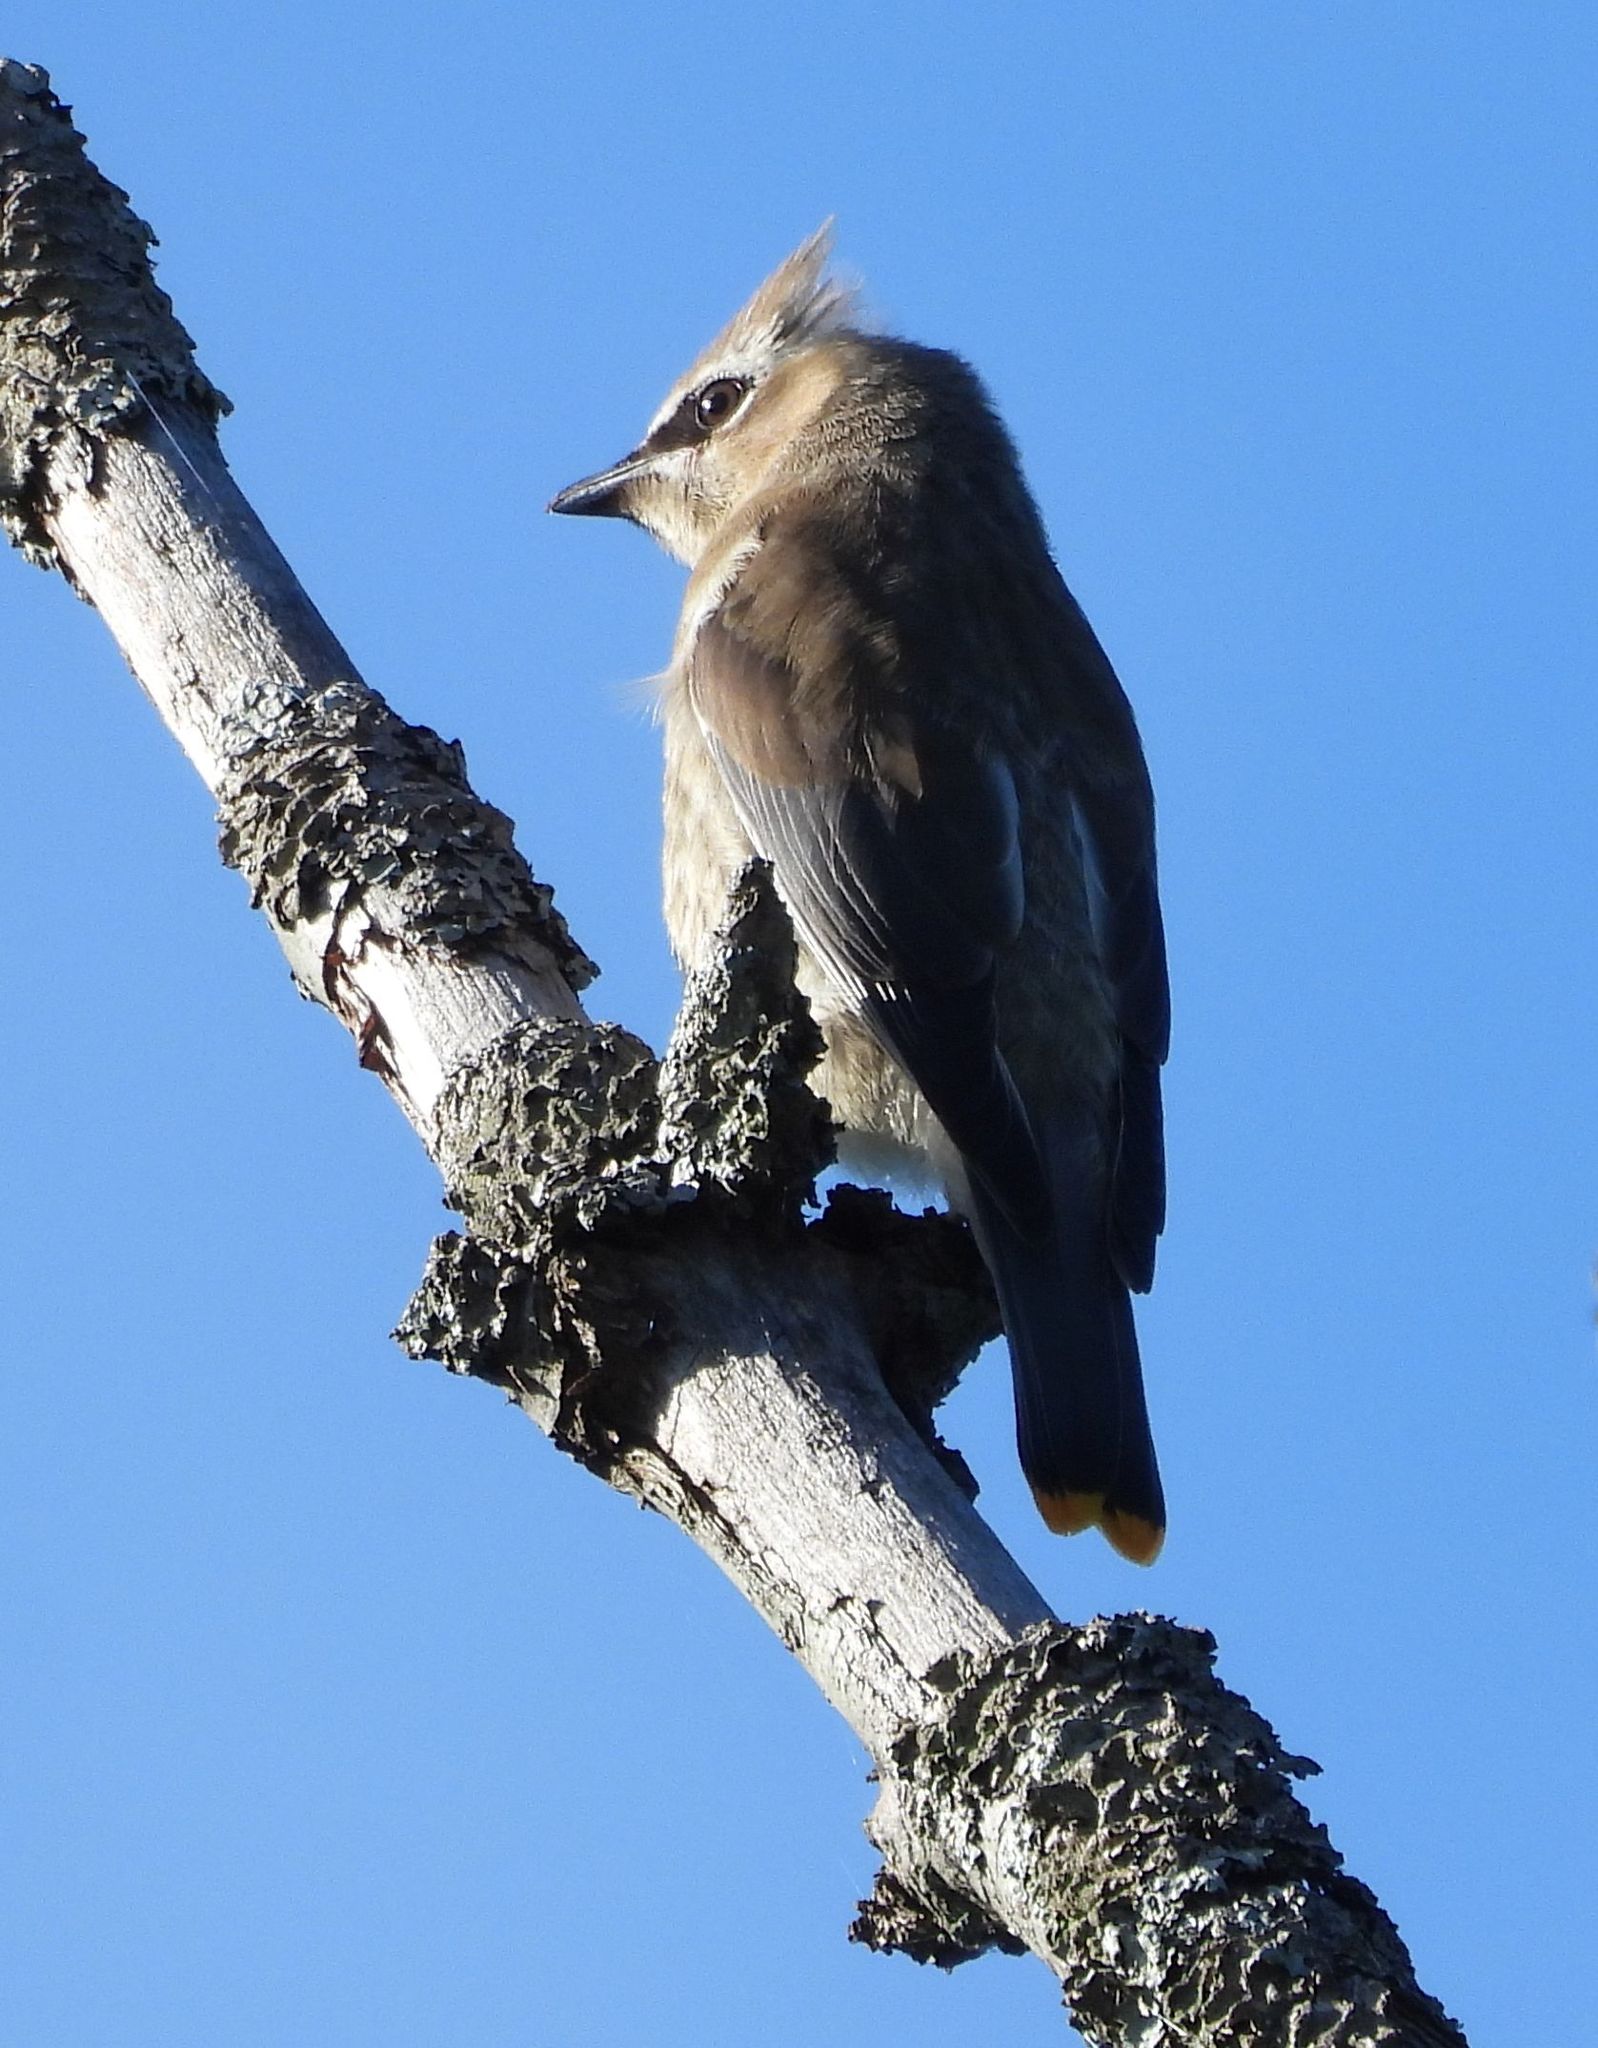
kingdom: Animalia
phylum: Chordata
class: Aves
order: Passeriformes
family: Bombycillidae
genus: Bombycilla
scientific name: Bombycilla cedrorum
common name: Cedar waxwing
